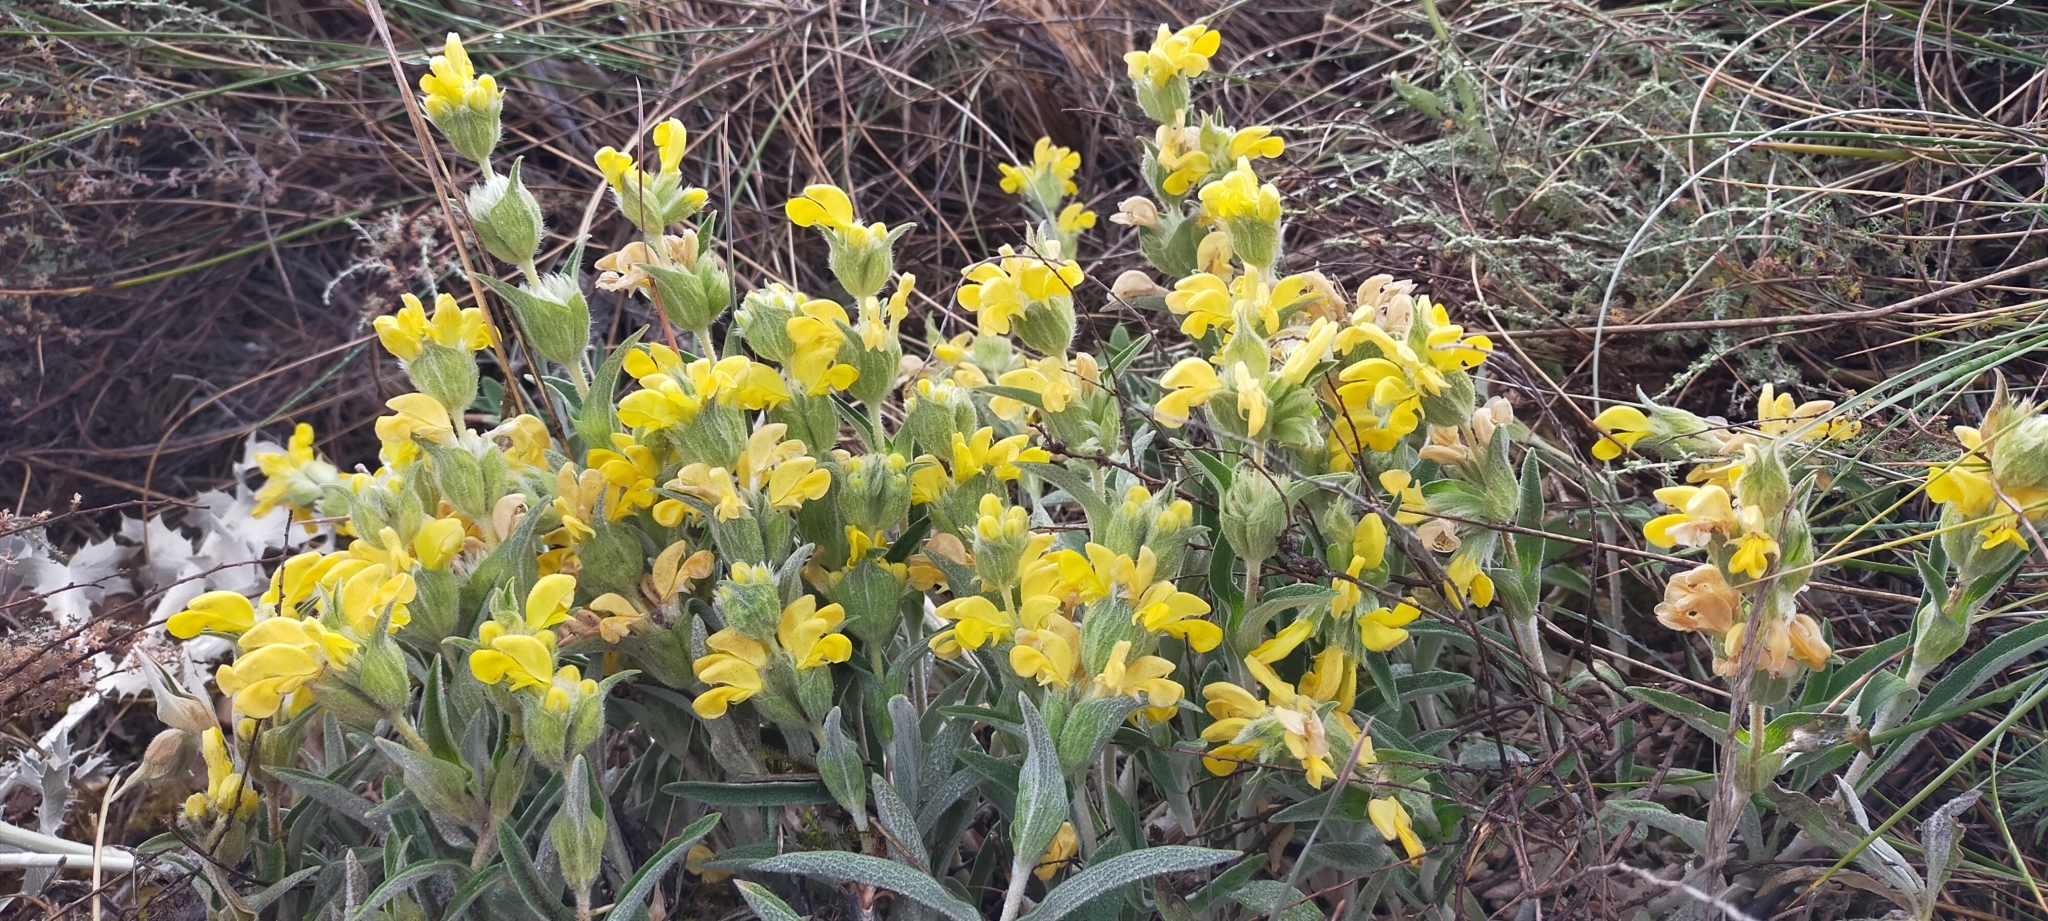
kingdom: Plantae
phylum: Tracheophyta
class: Magnoliopsida
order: Lamiales
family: Lamiaceae
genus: Phlomis
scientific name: Phlomis lychnitis
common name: Lampwickplant
